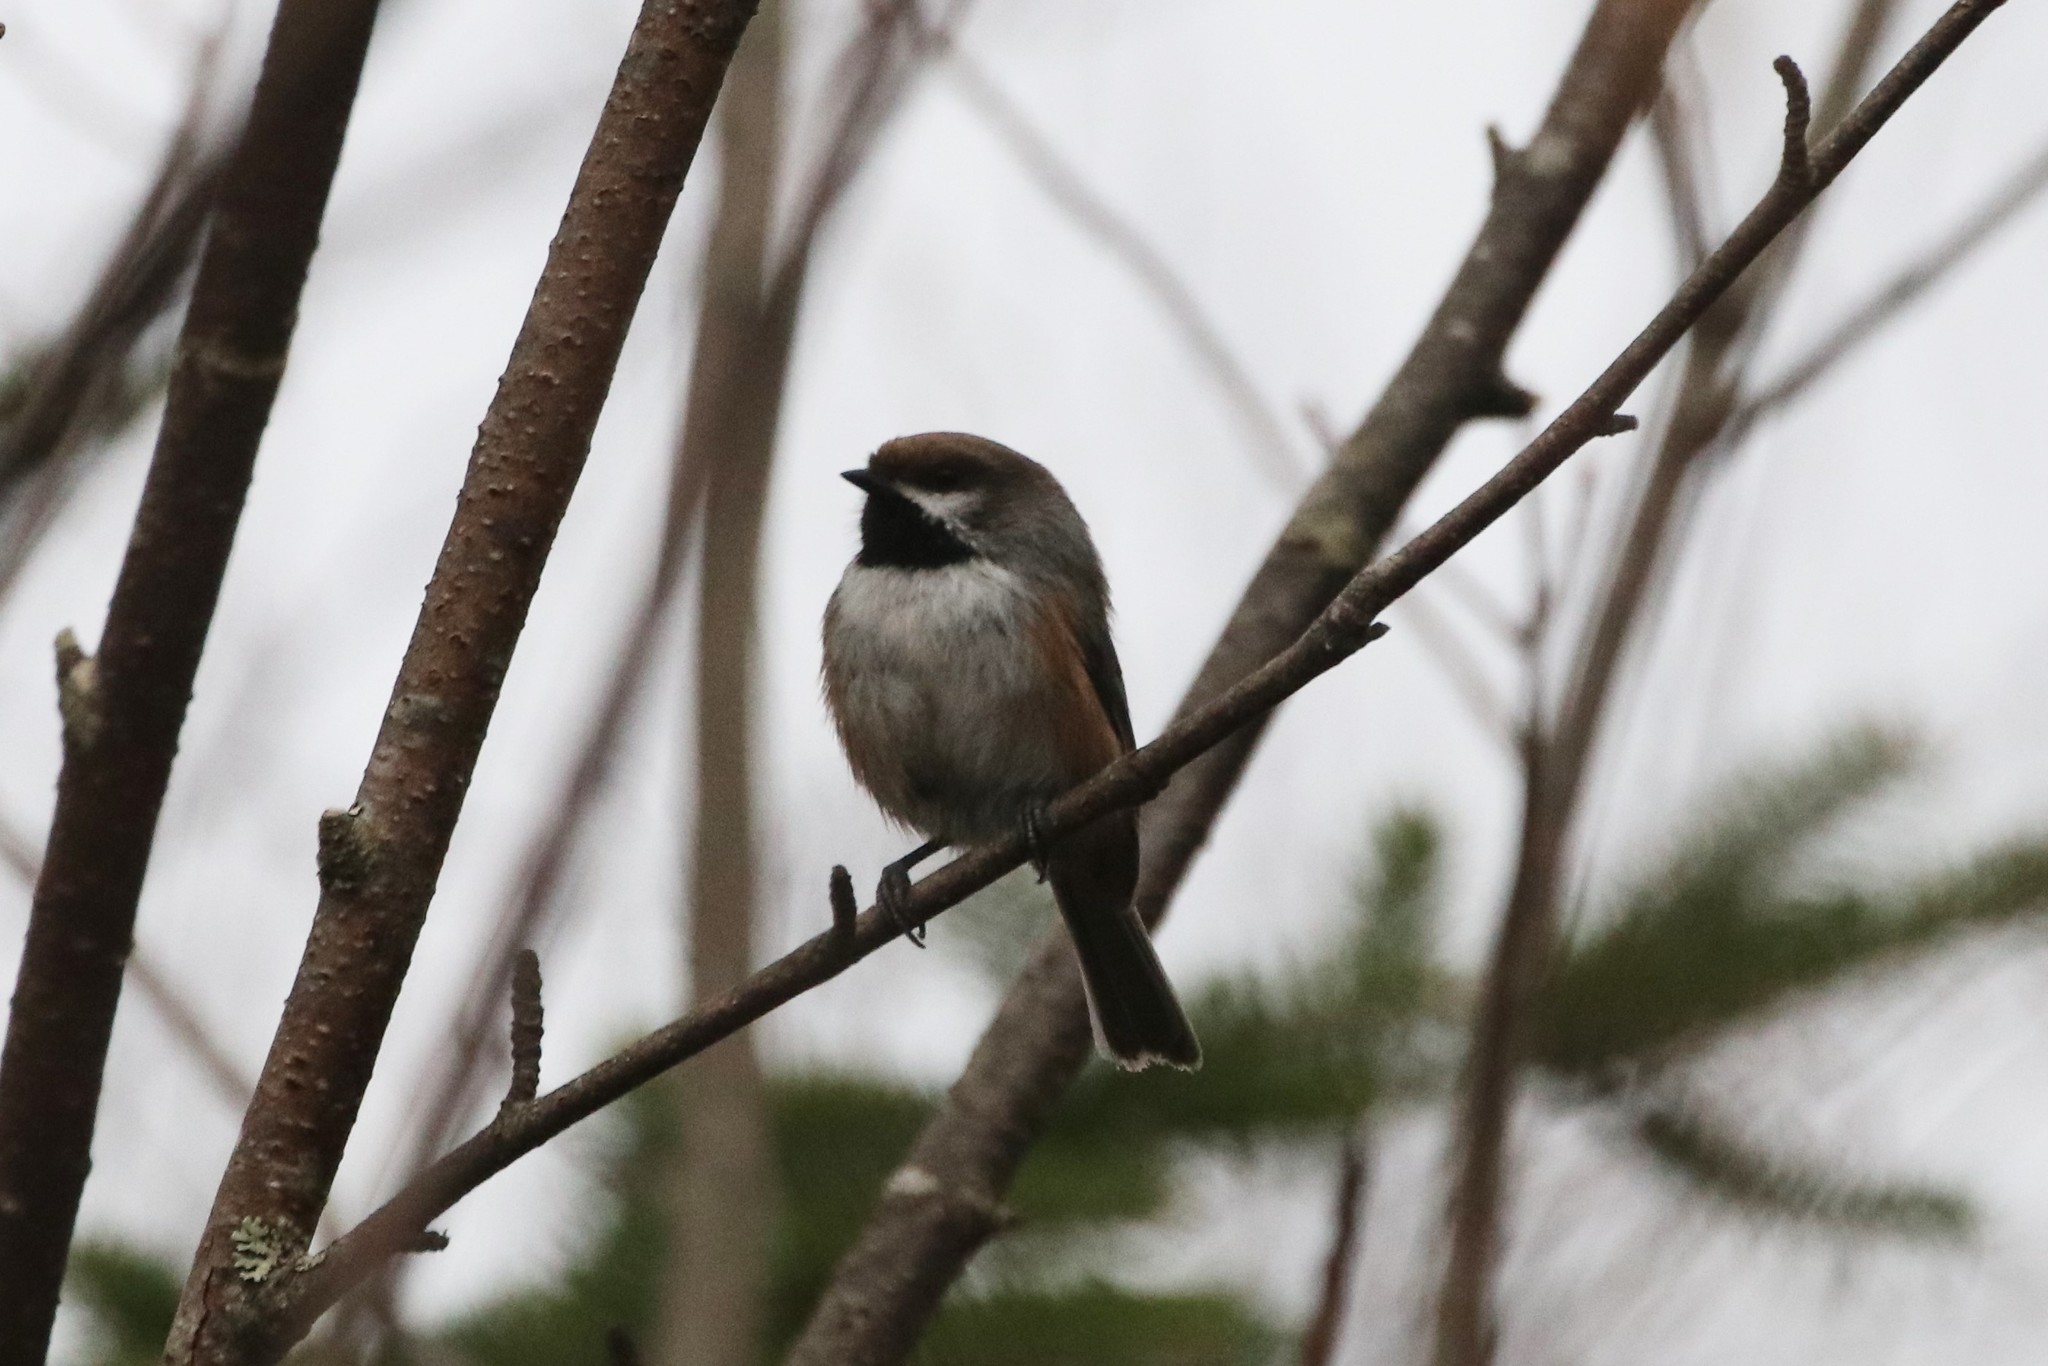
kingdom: Animalia
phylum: Chordata
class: Aves
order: Passeriformes
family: Paridae
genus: Poecile
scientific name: Poecile hudsonicus
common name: Boreal chickadee
